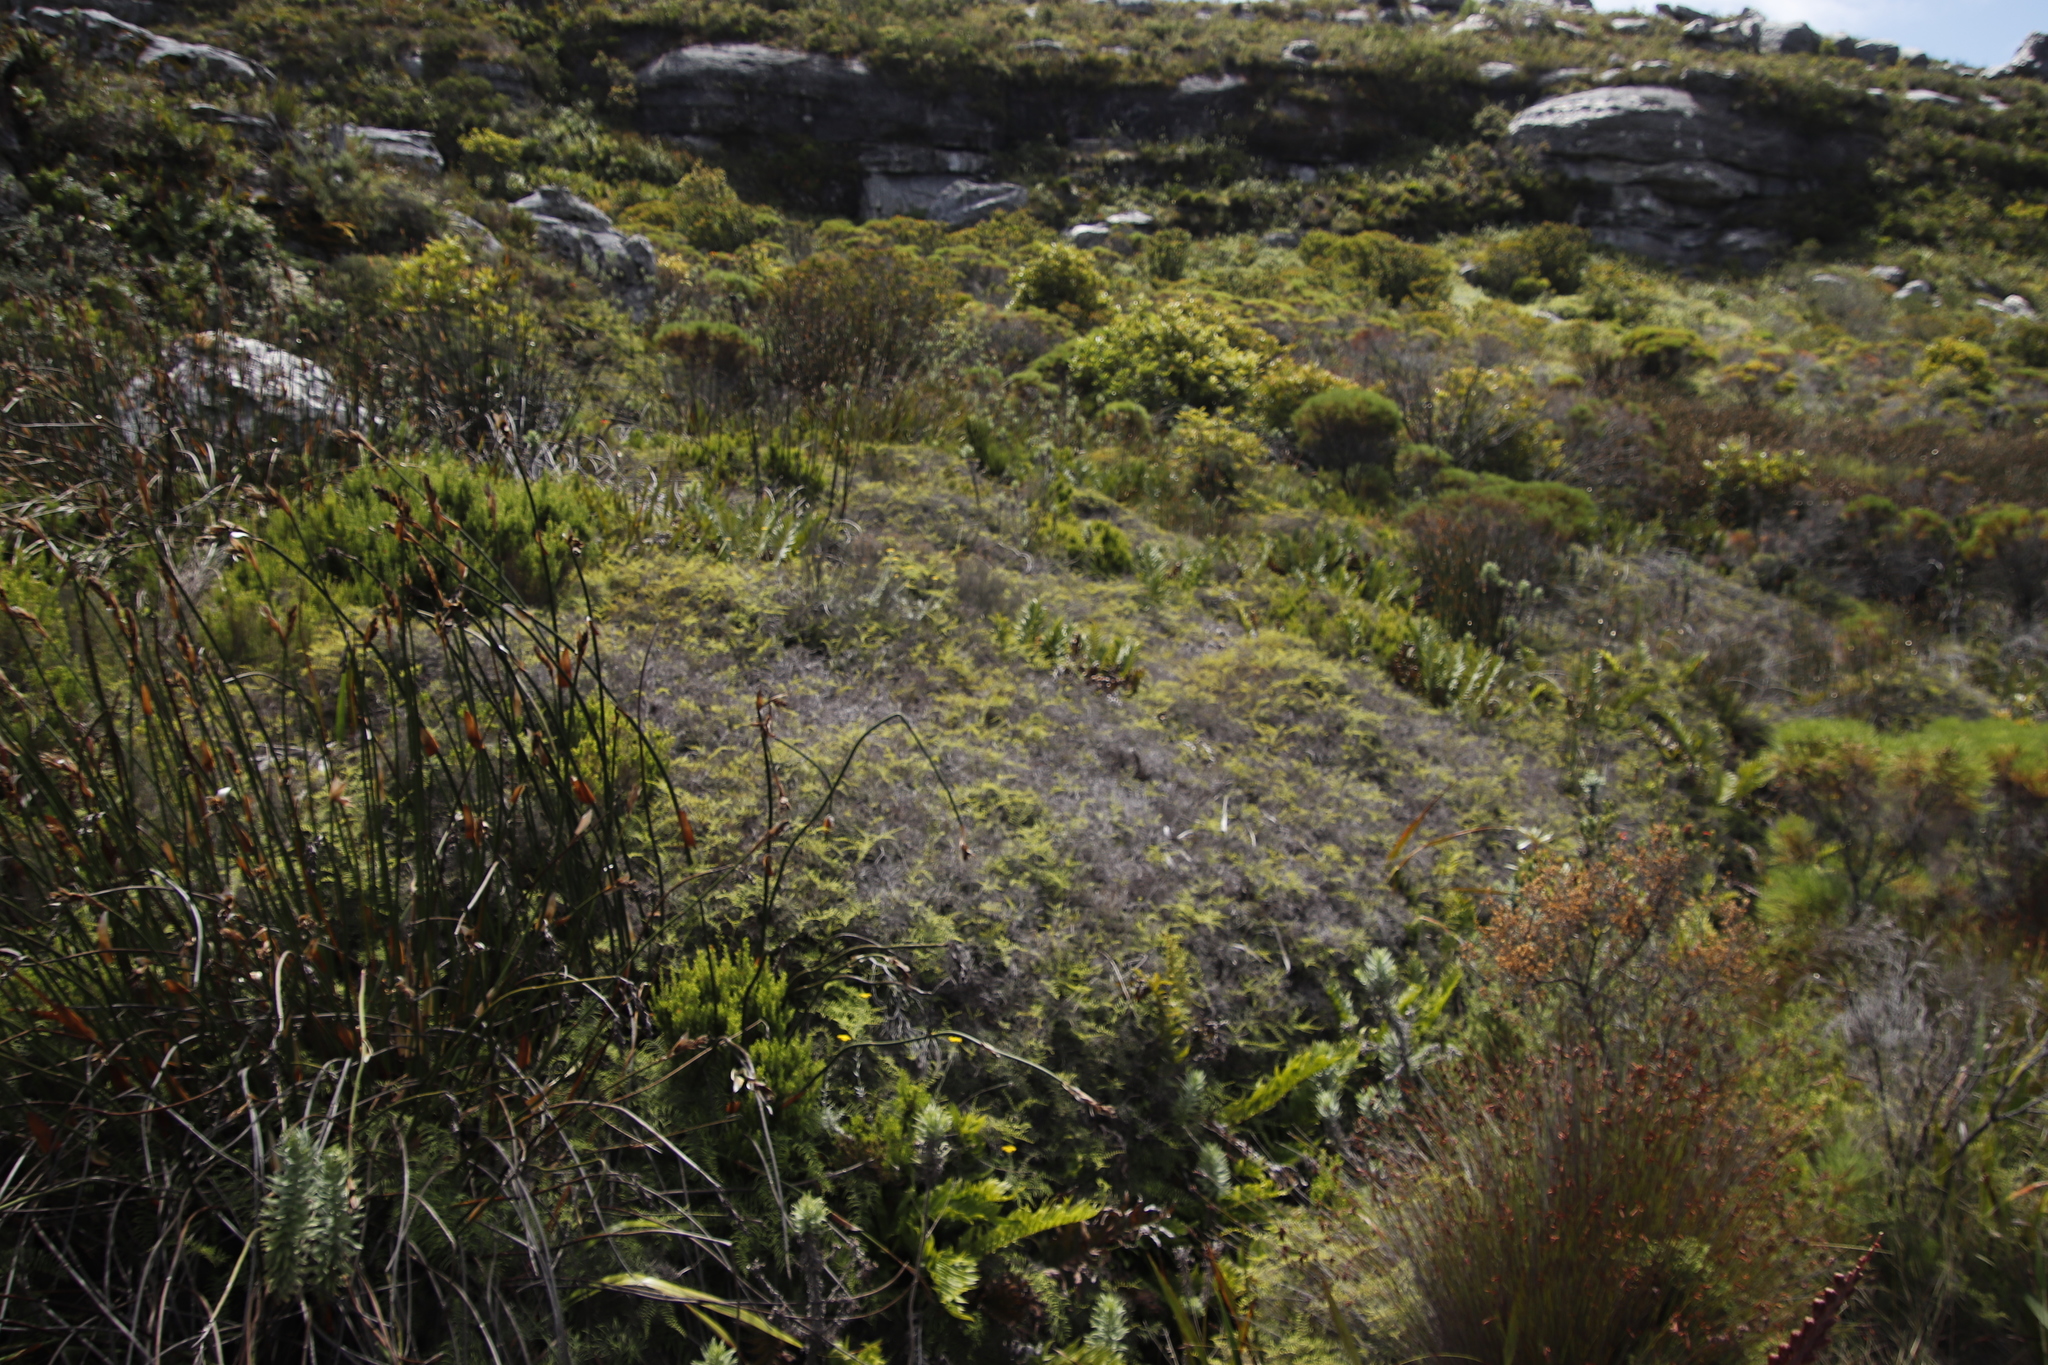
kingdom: Plantae
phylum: Tracheophyta
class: Polypodiopsida
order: Gleicheniales
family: Gleicheniaceae
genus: Gleichenia
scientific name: Gleichenia polypodioides
